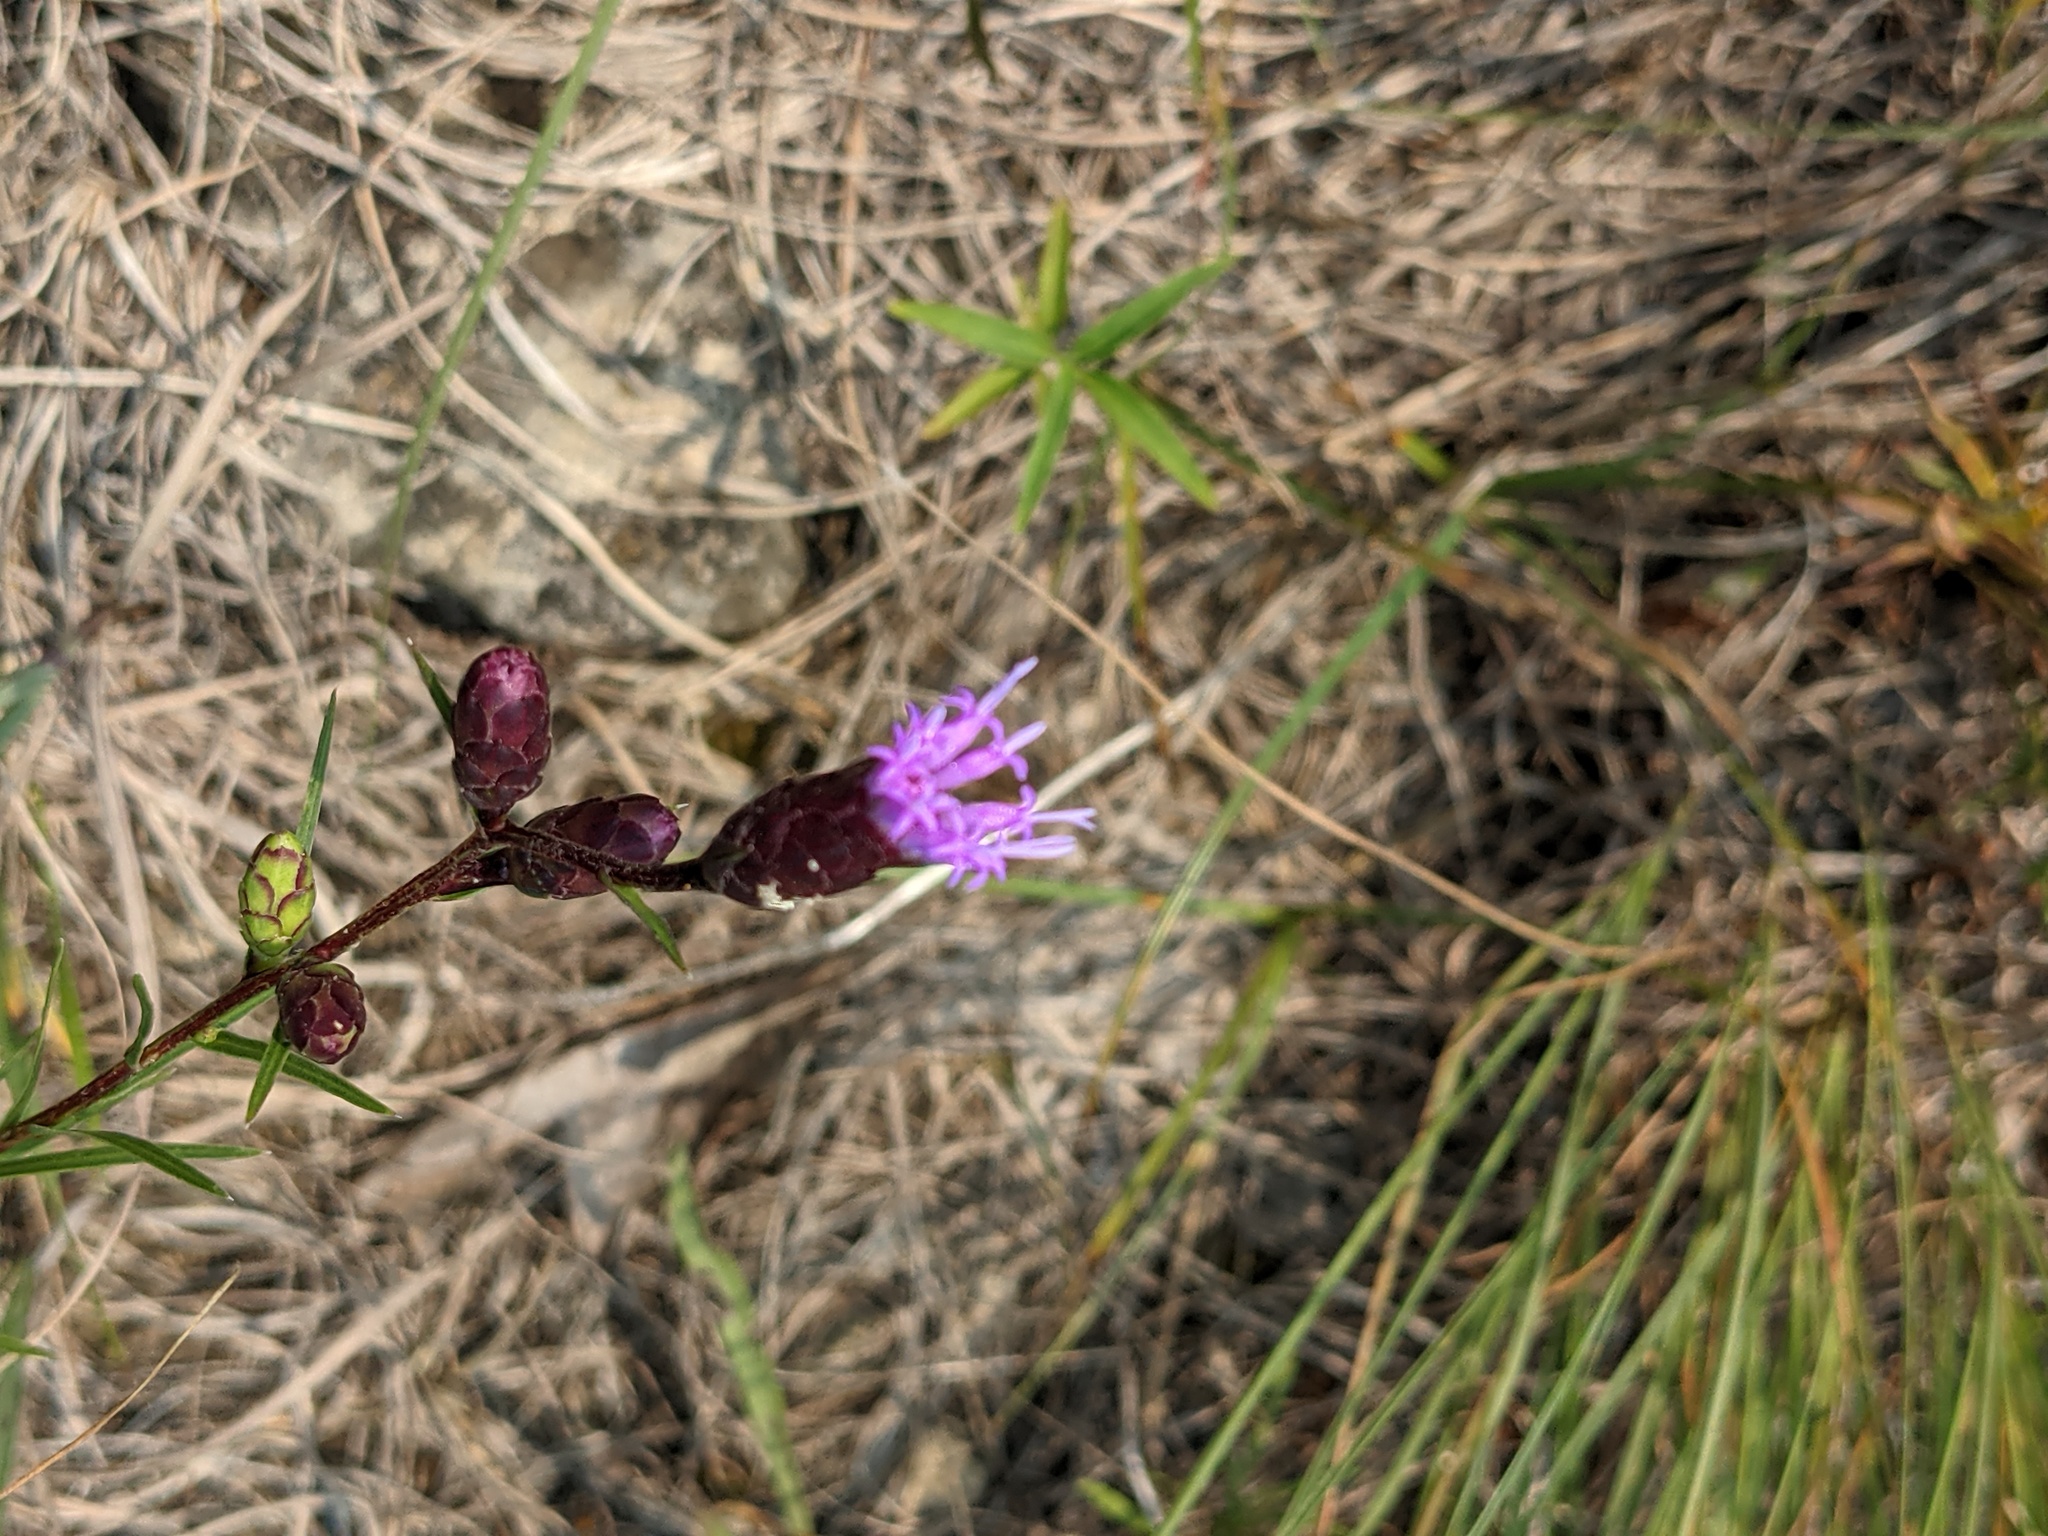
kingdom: Plantae
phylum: Tracheophyta
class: Magnoliopsida
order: Asterales
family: Asteraceae
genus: Liatris
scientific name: Liatris cylindracea
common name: Few-head blazingstar
